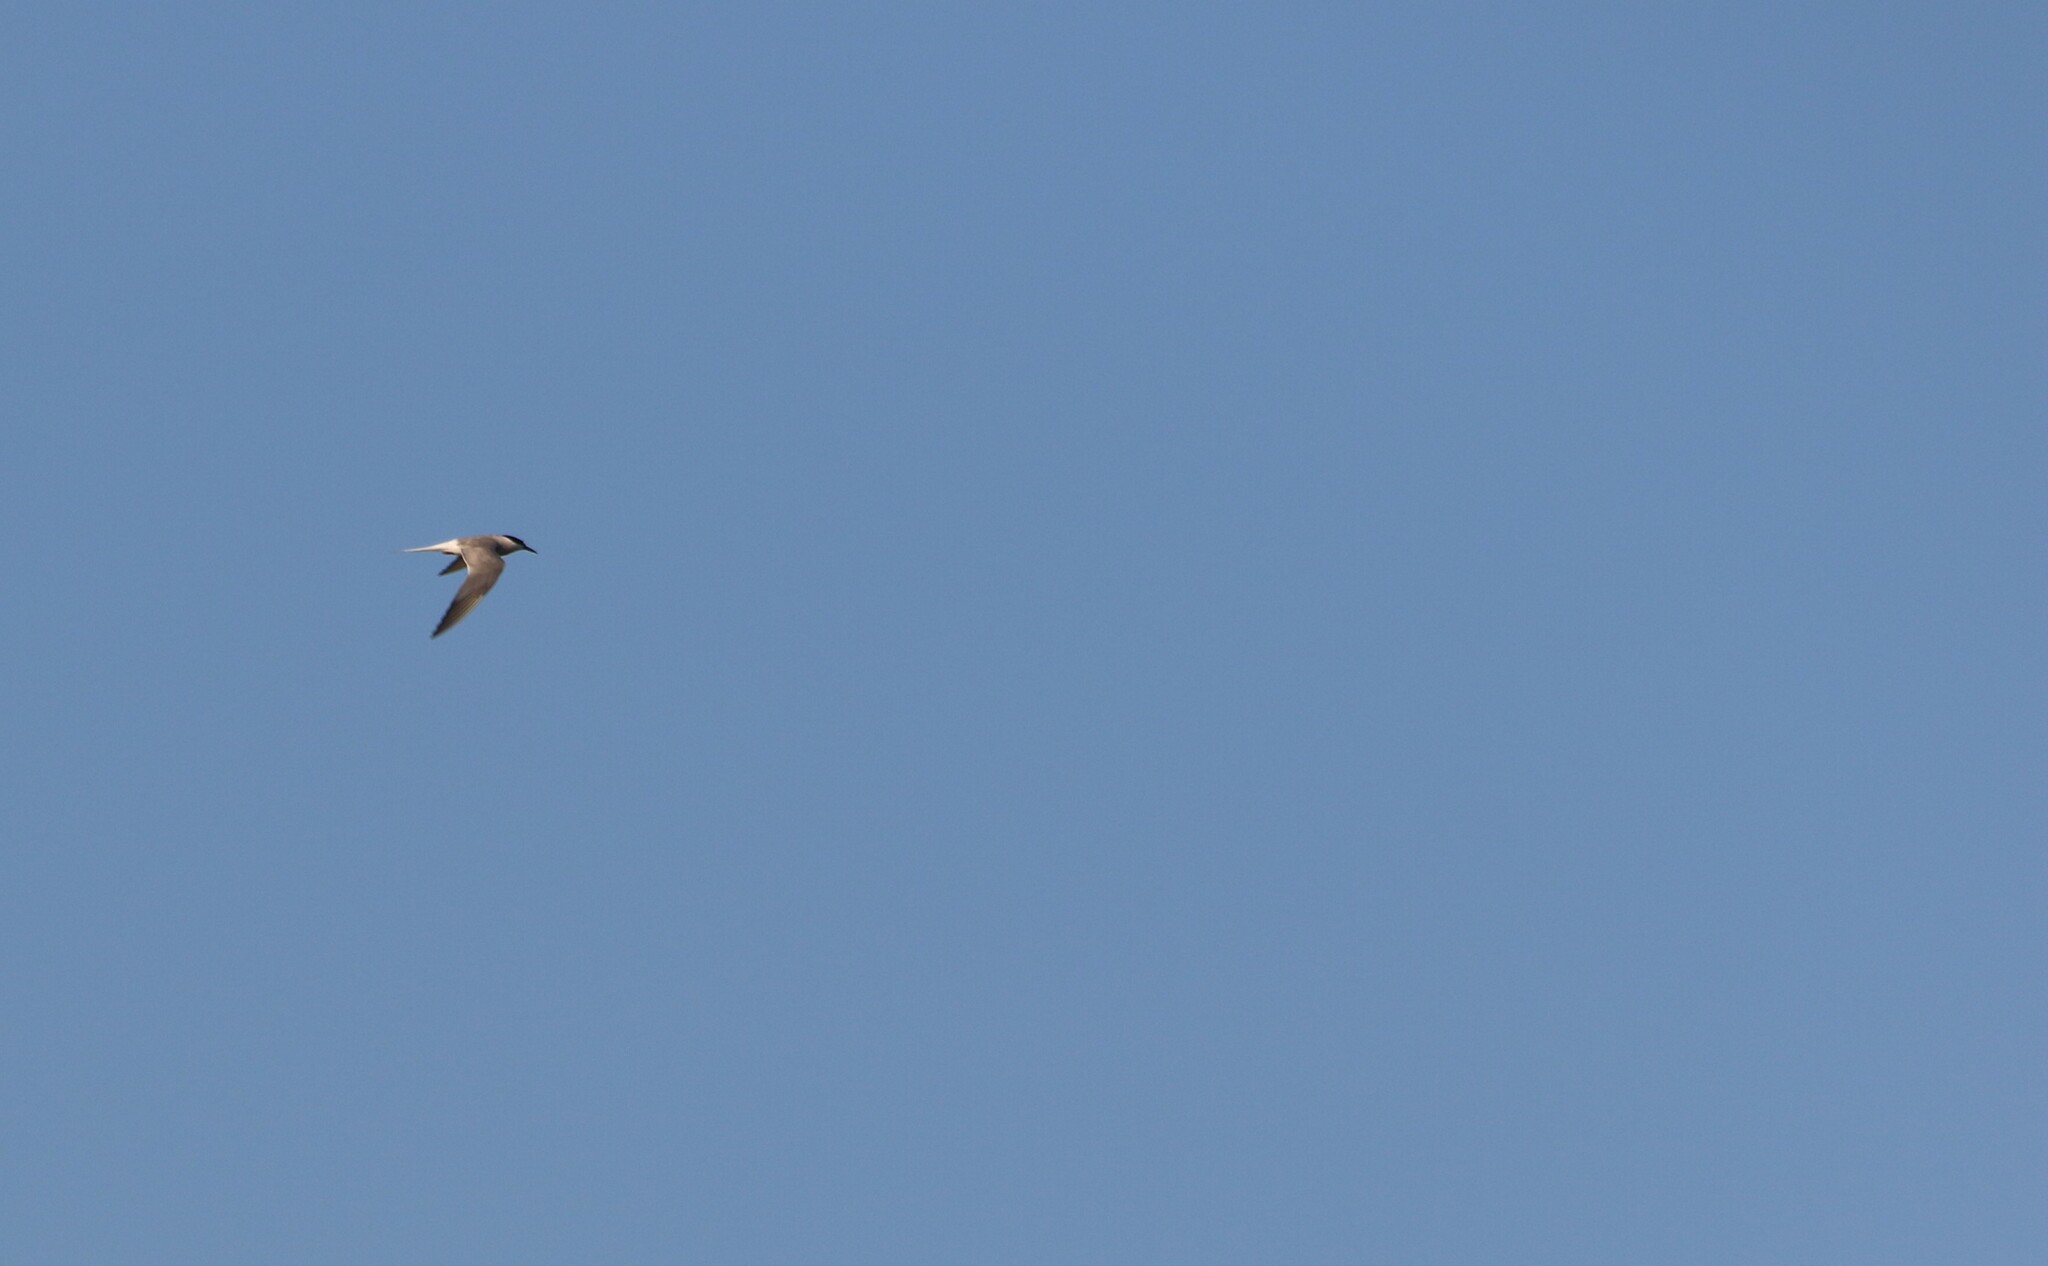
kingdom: Animalia
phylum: Chordata
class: Aves
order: Charadriiformes
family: Laridae
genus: Sterna
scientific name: Sterna hirundo
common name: Common tern
